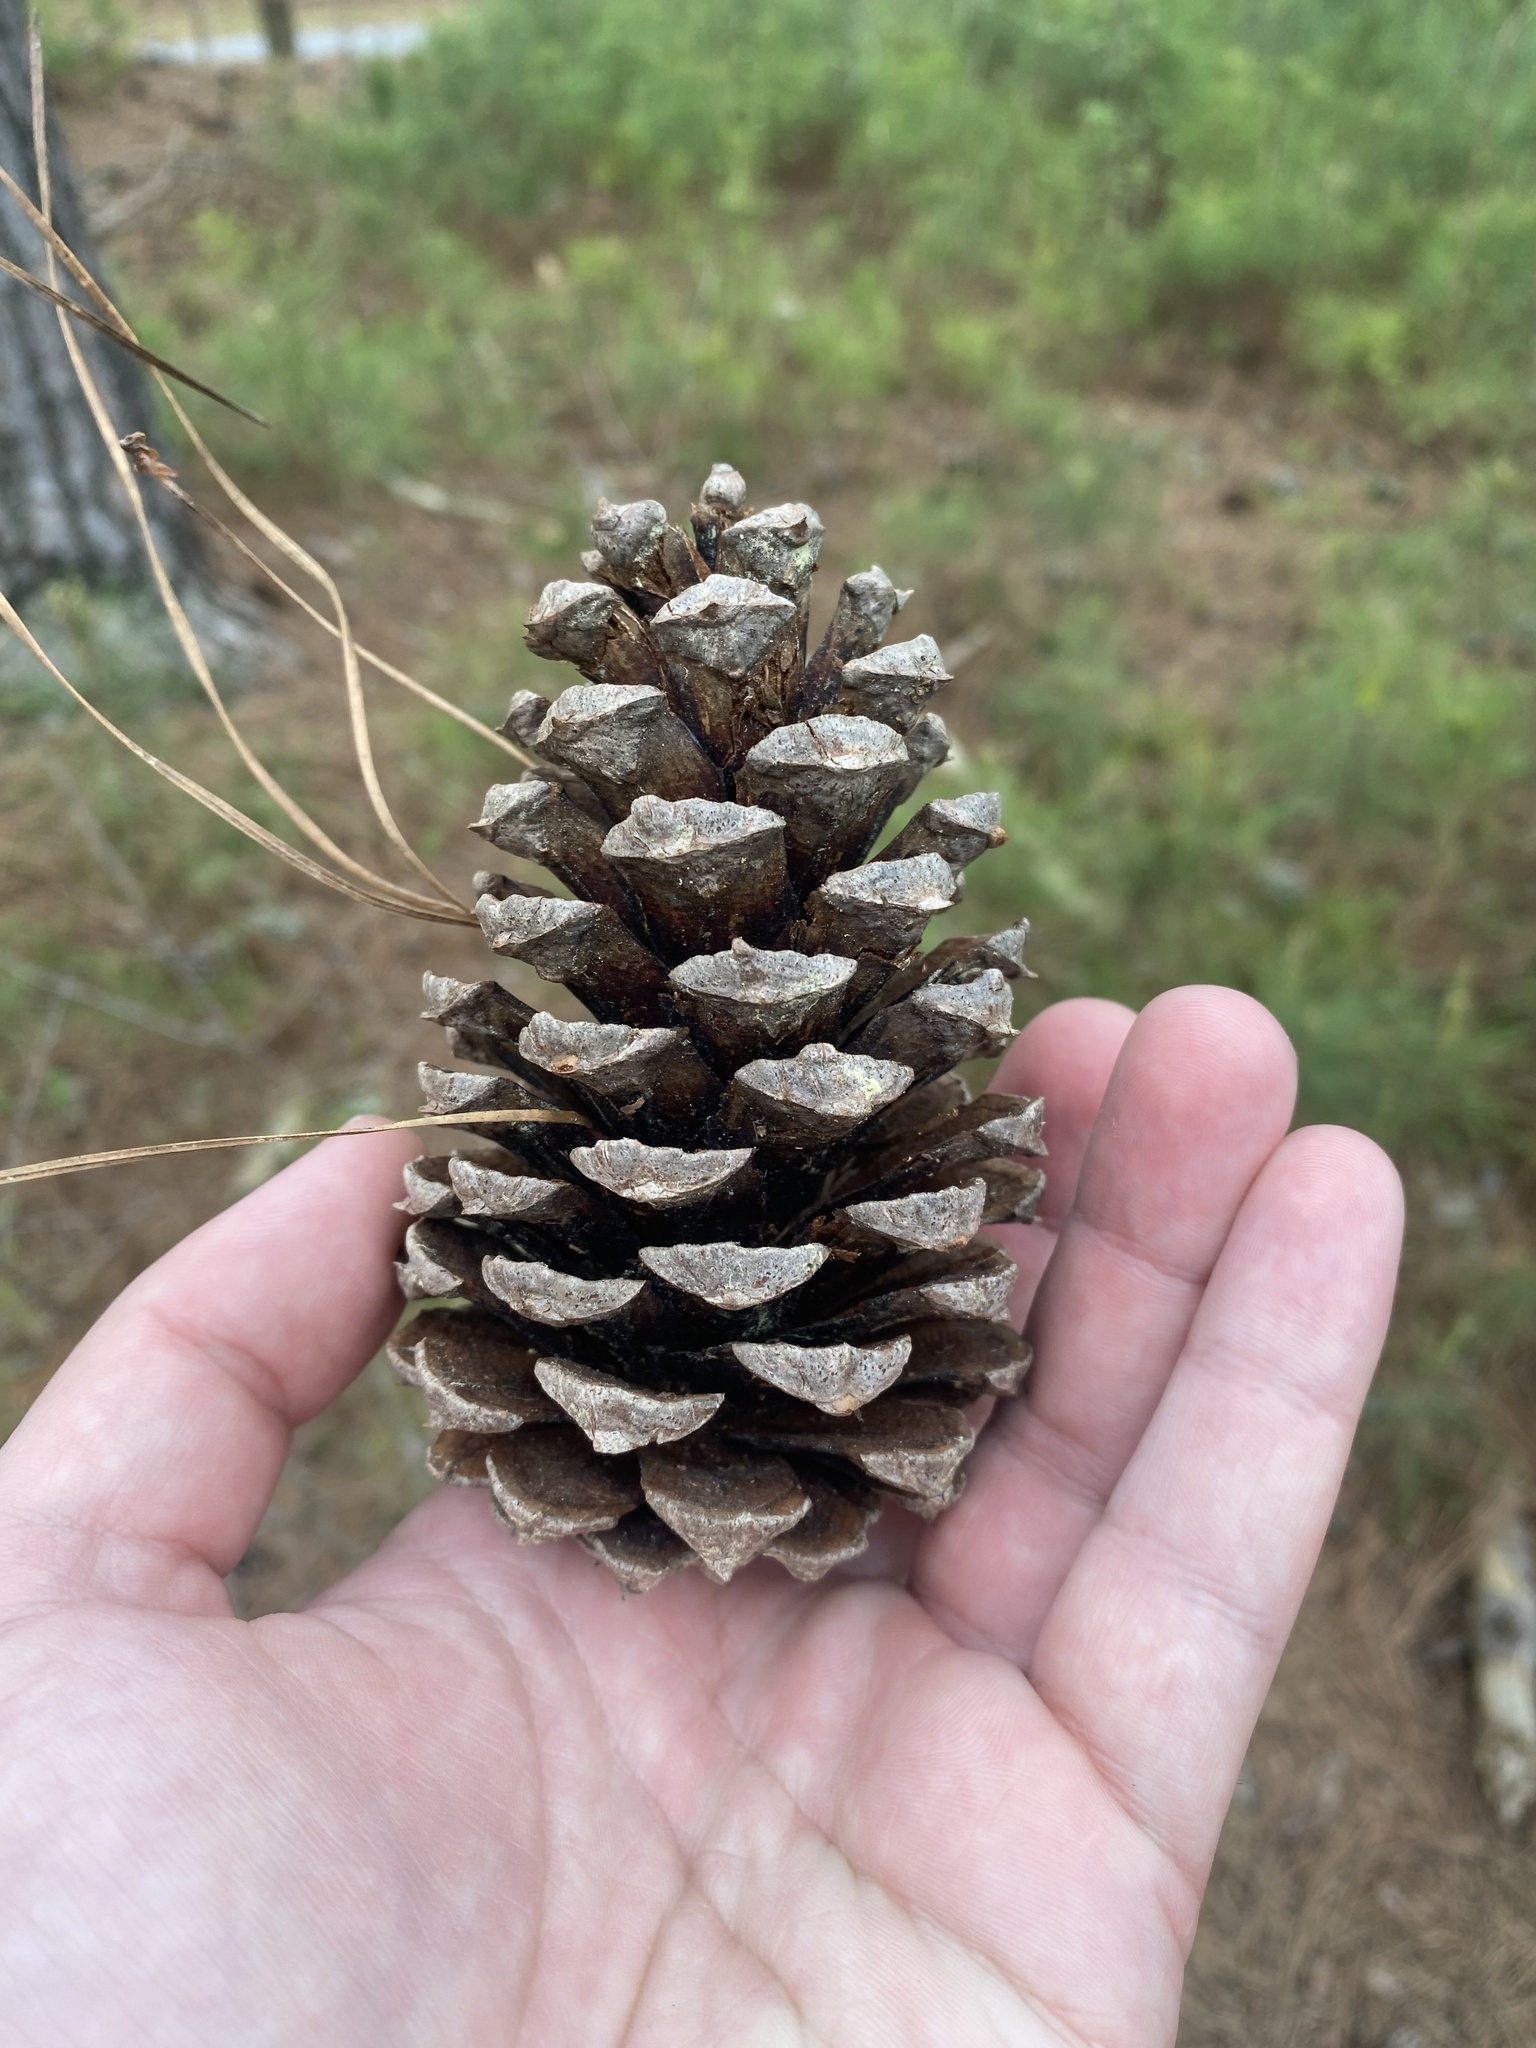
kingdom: Plantae
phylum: Tracheophyta
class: Pinopsida
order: Pinales
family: Pinaceae
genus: Pinus
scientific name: Pinus taeda
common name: Loblolly pine
